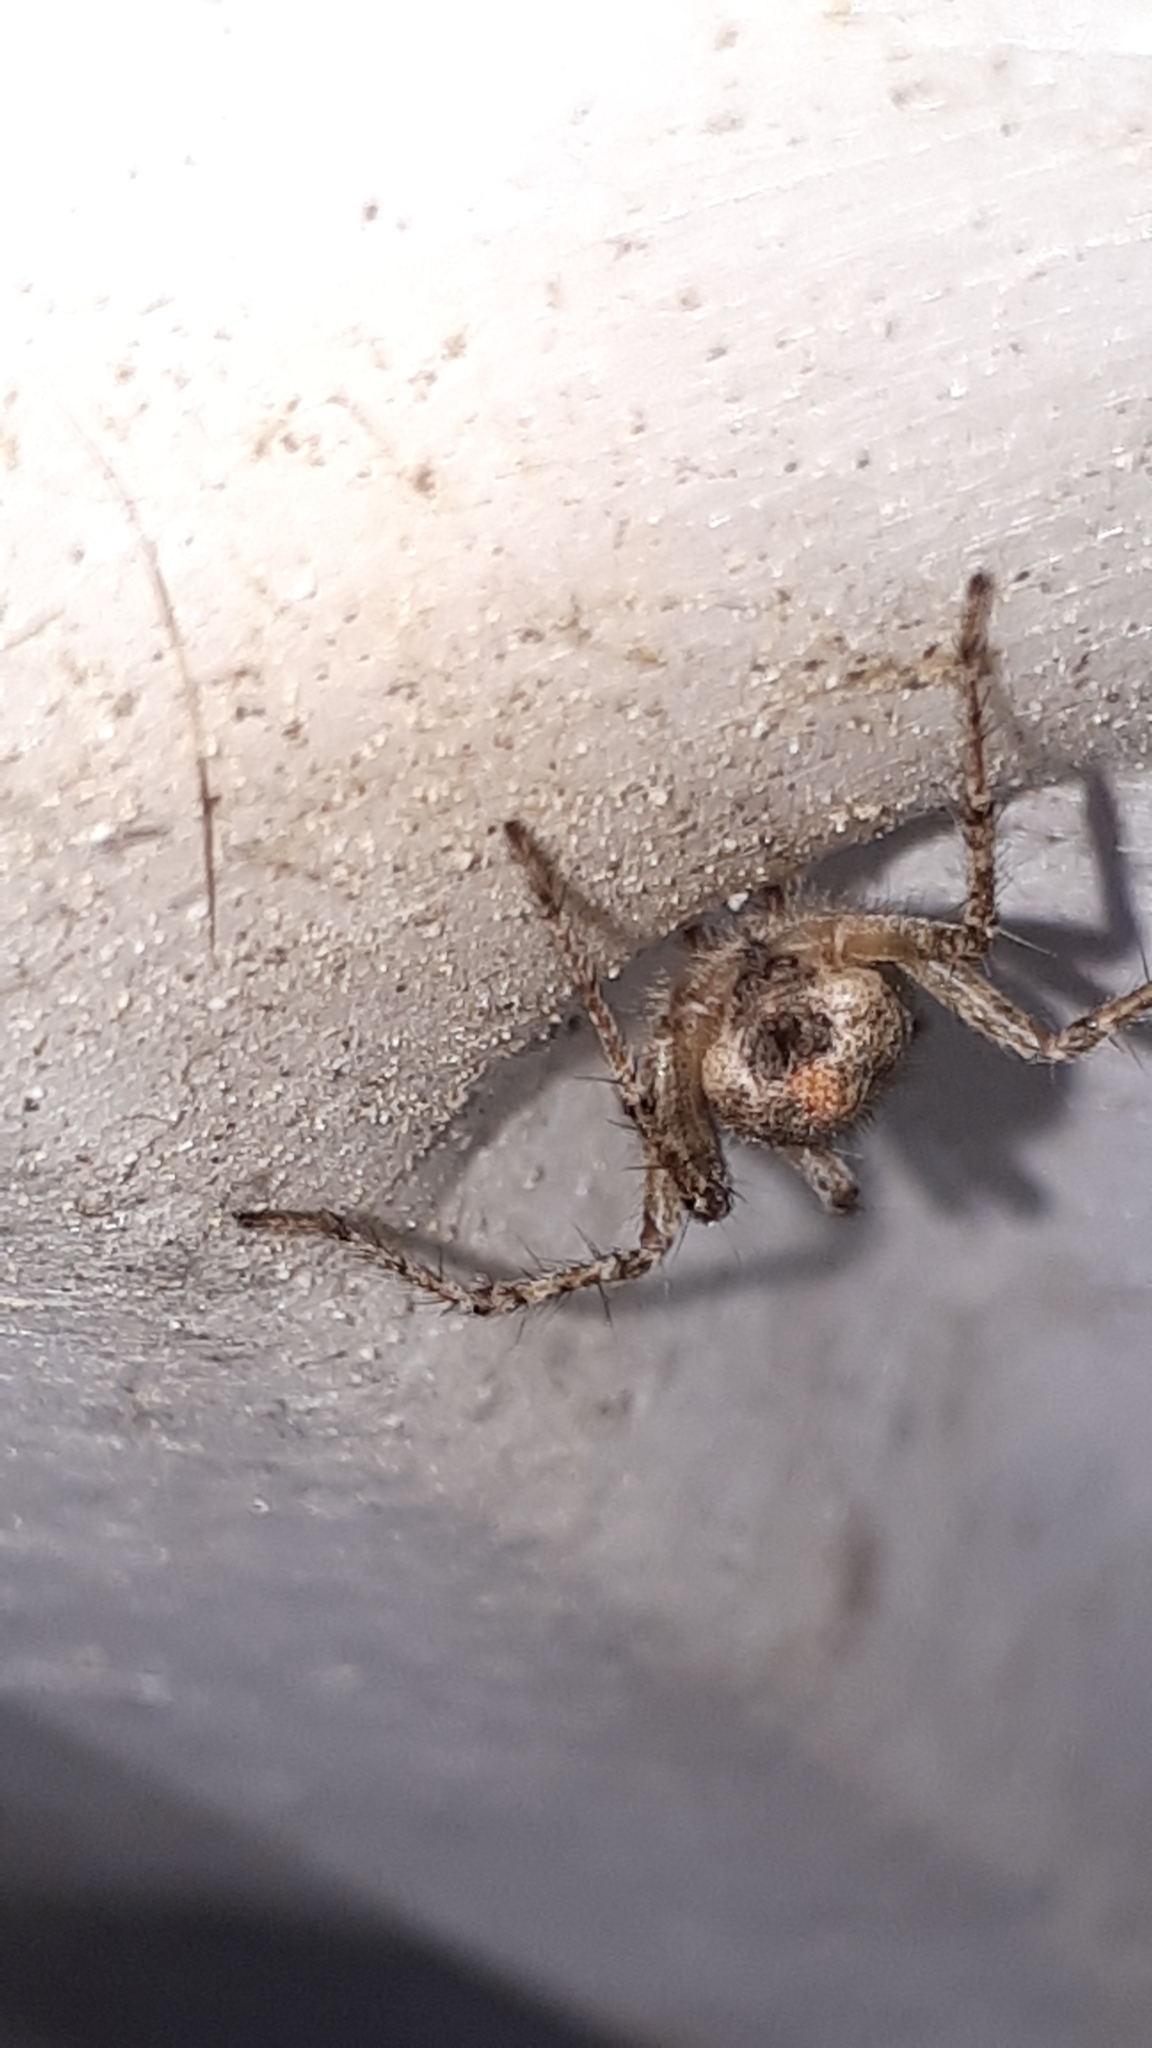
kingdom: Animalia
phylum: Arthropoda
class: Arachnida
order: Araneae
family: Agelenidae
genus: Allagelena
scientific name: Allagelena gracilens
